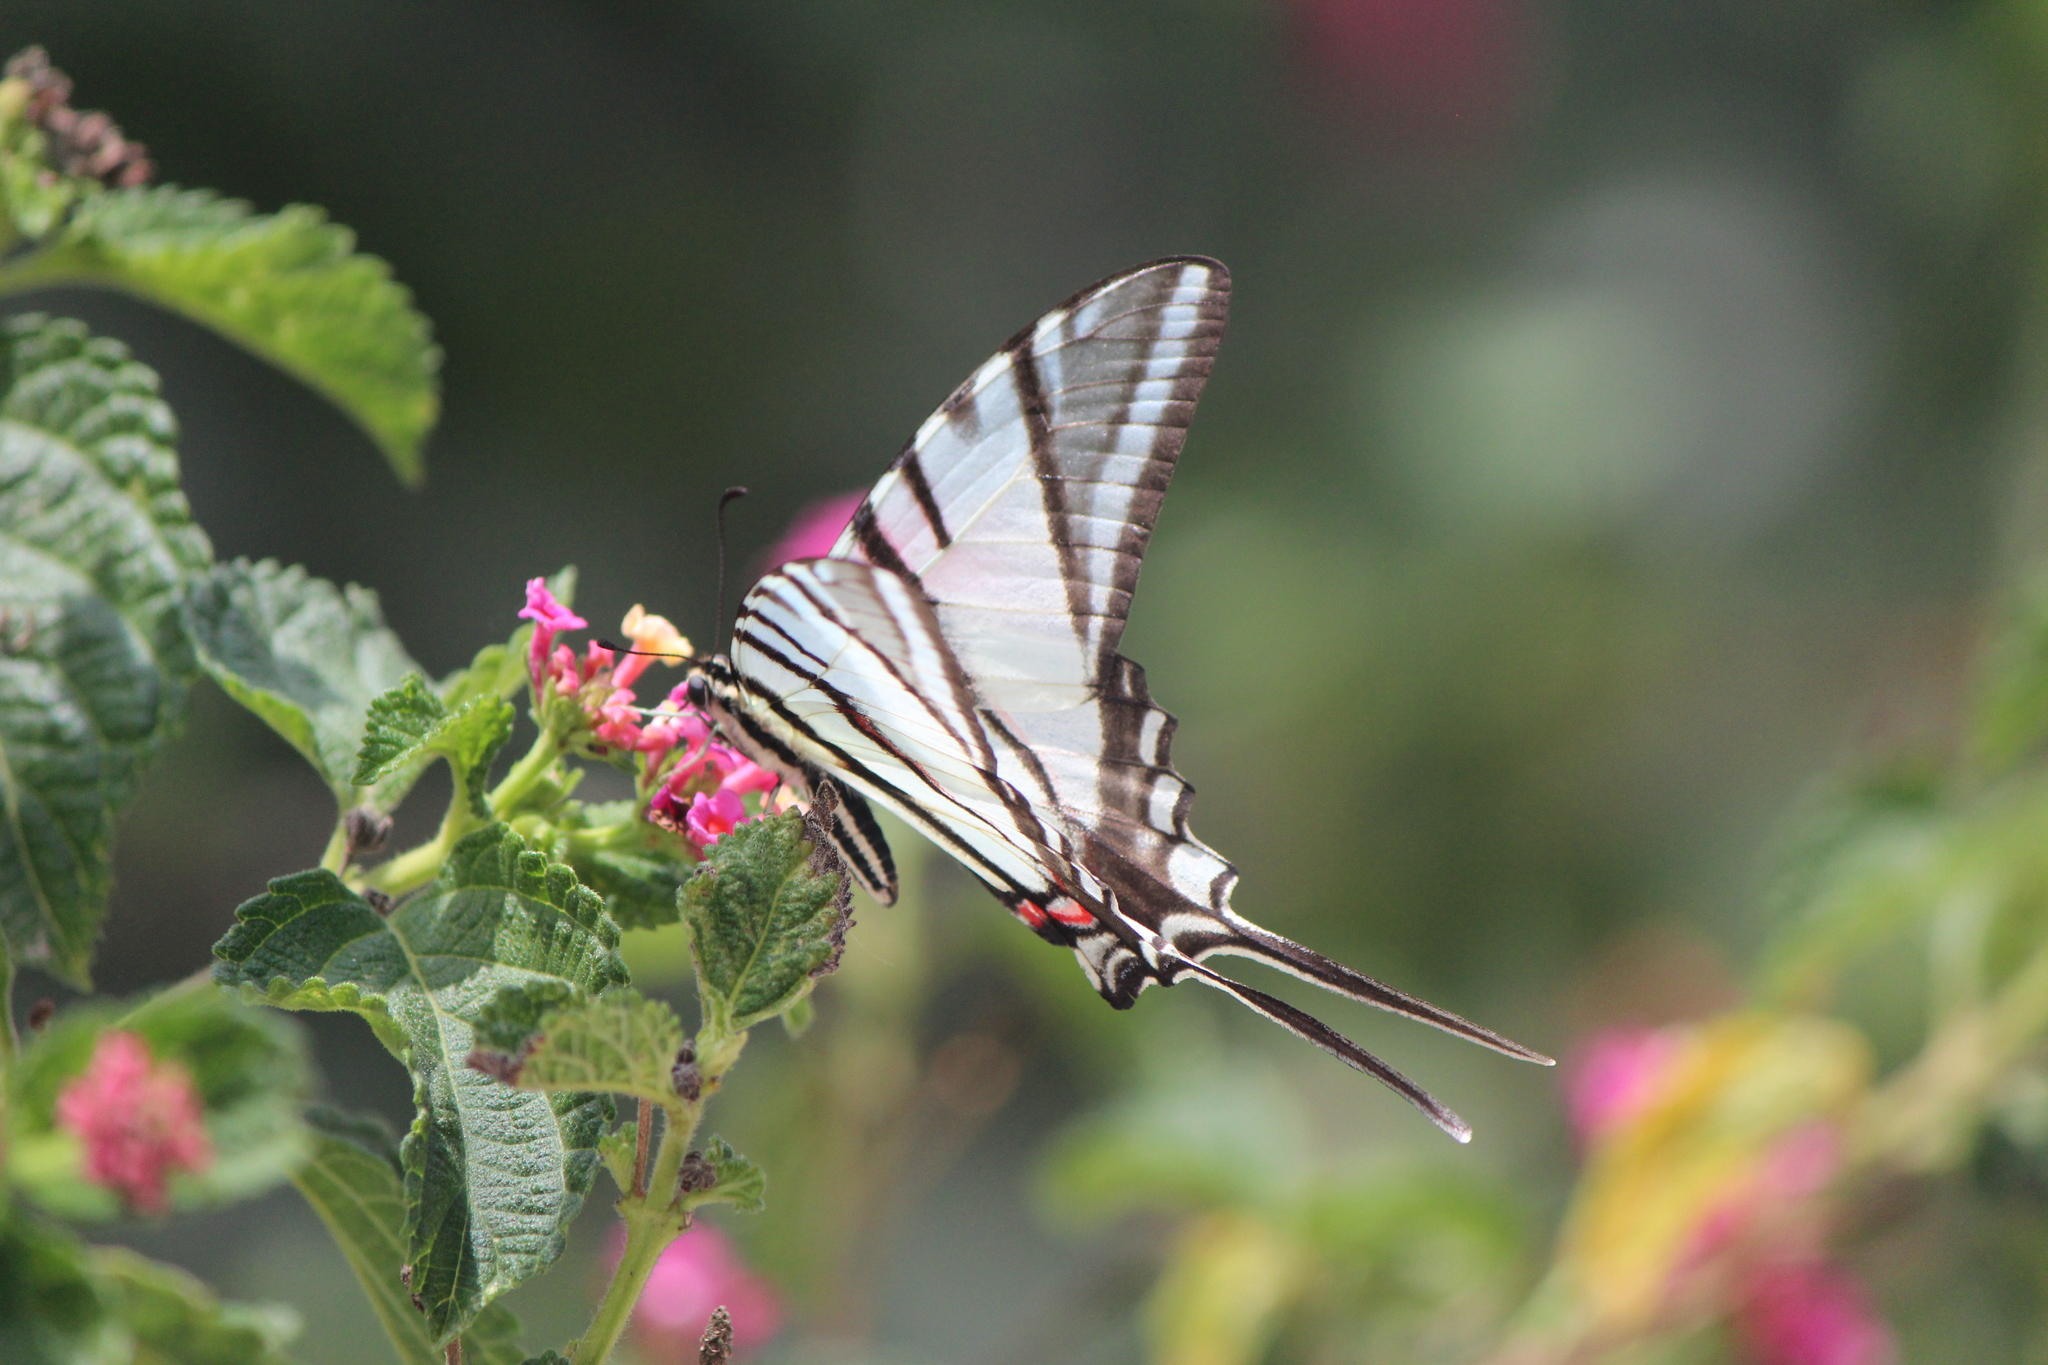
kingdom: Animalia
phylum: Arthropoda
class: Insecta
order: Lepidoptera
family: Papilionidae
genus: Protographium
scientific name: Protographium epidaus
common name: Mexican kite swallowtail
